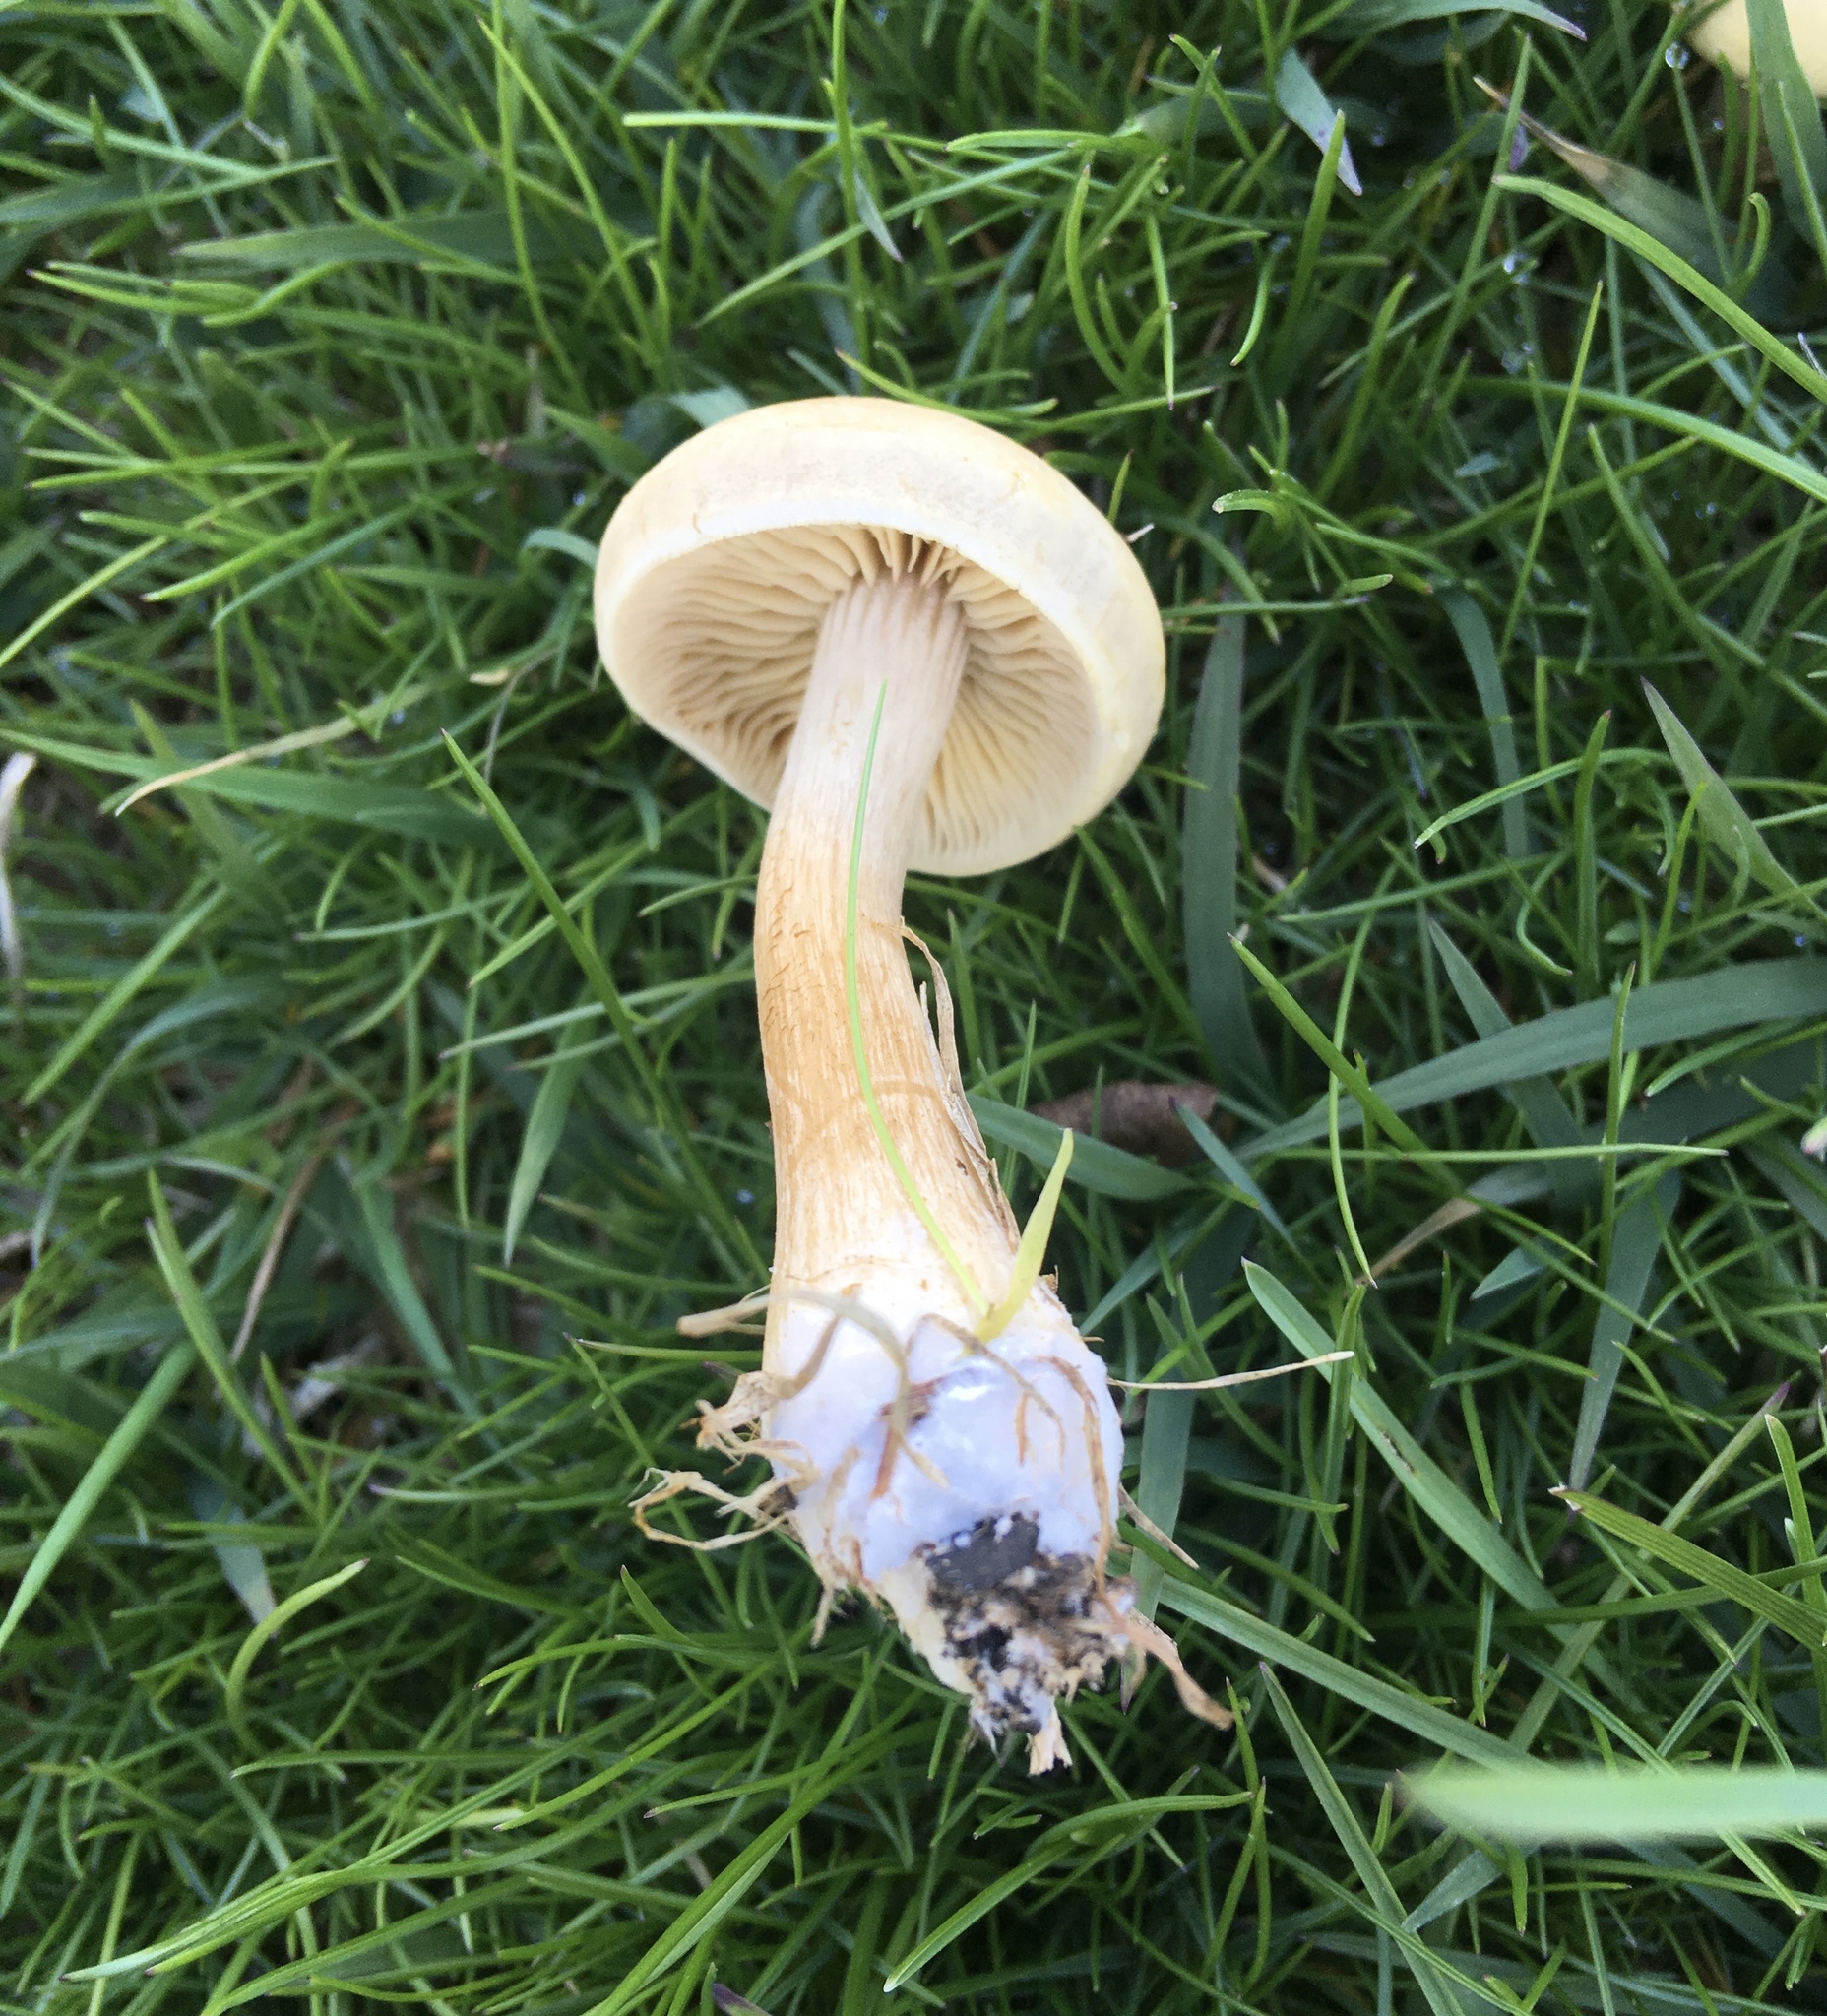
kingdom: Fungi
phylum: Basidiomycota
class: Agaricomycetes
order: Agaricales
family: Strophariaceae
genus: Agrocybe
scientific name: Agrocybe putaminum
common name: Mulch fieldcap
